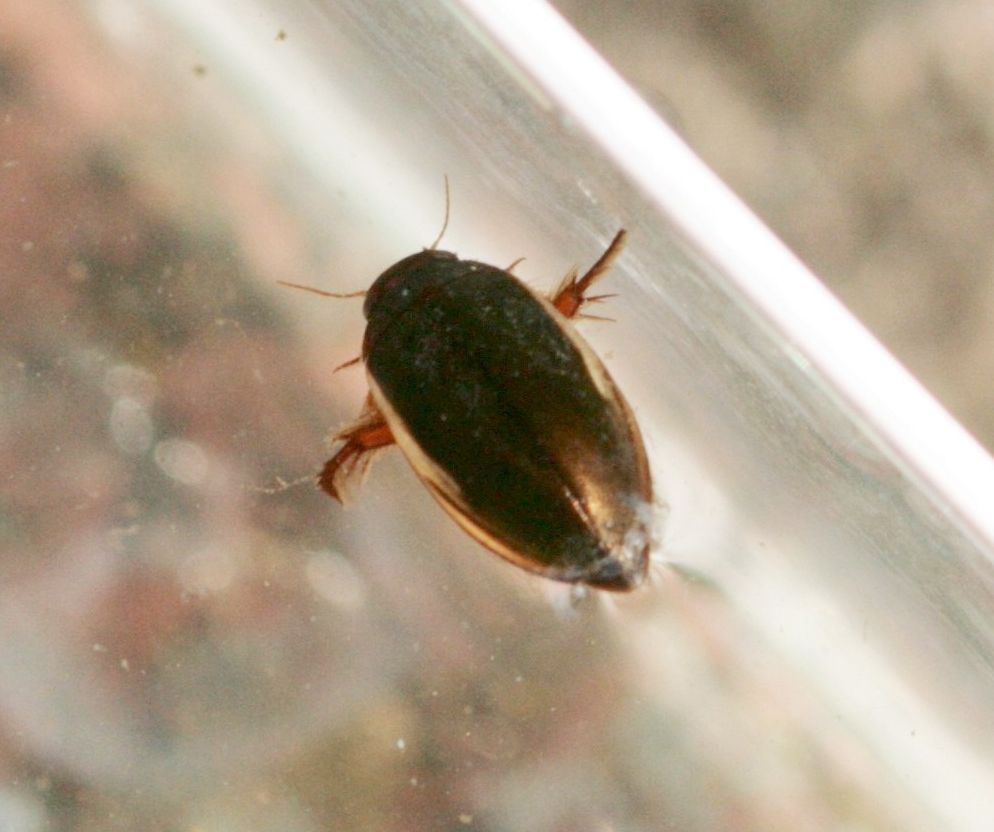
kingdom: Animalia
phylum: Arthropoda
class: Insecta
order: Coleoptera
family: Dytiscidae
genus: Ilybius
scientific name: Ilybius fuliginosus
